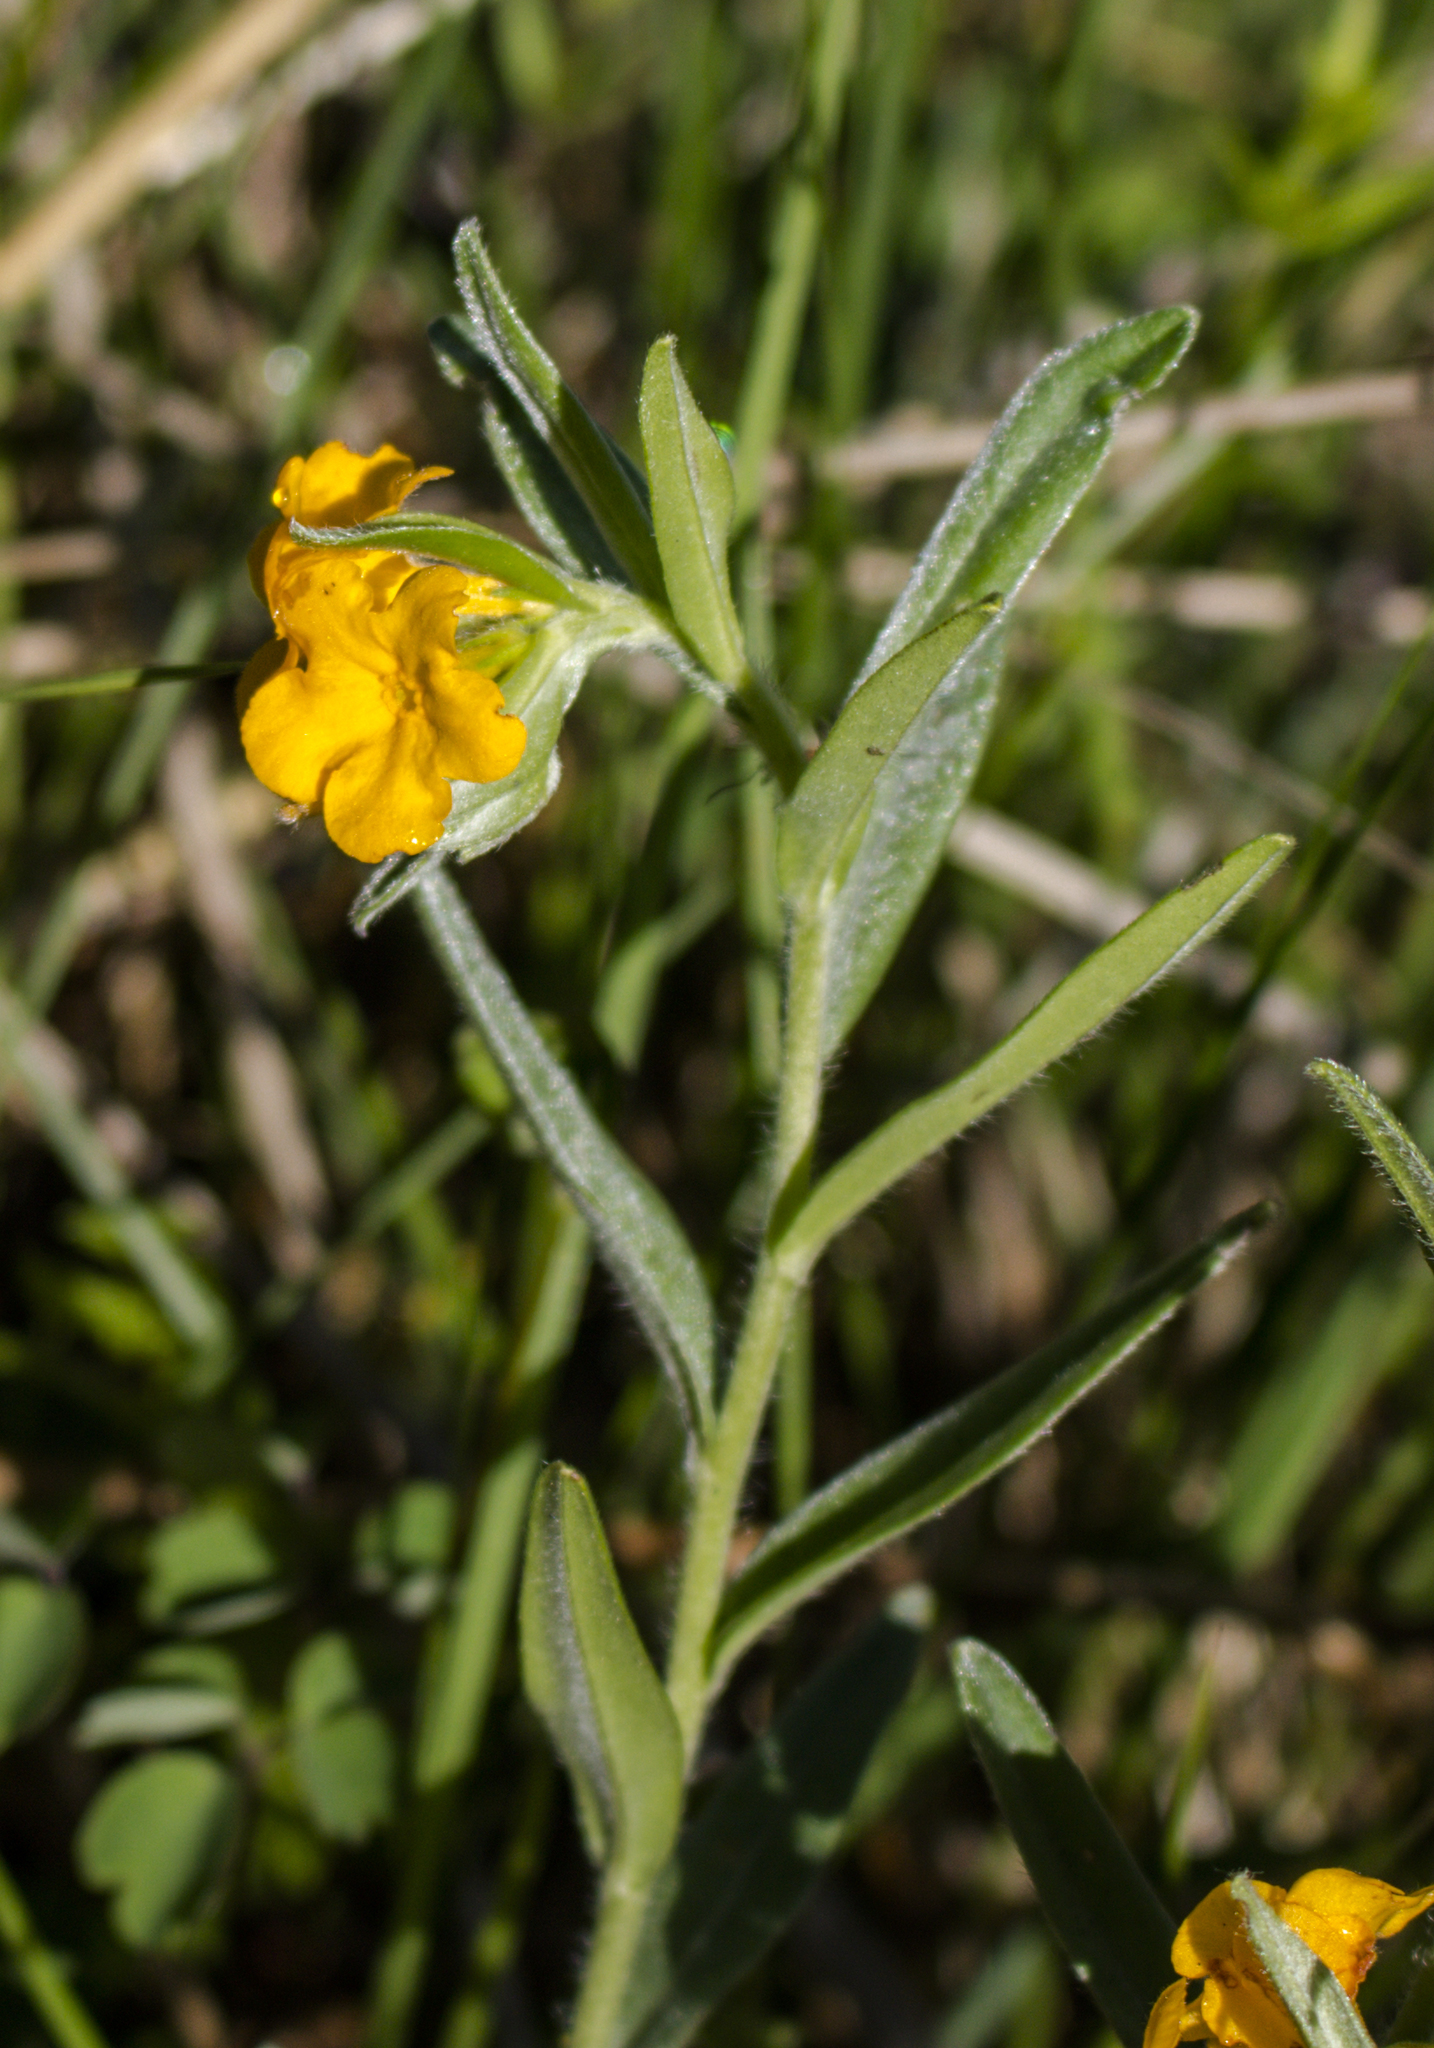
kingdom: Plantae
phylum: Tracheophyta
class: Magnoliopsida
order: Boraginales
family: Boraginaceae
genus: Lithospermum
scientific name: Lithospermum canescens
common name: Hoary puccoon
